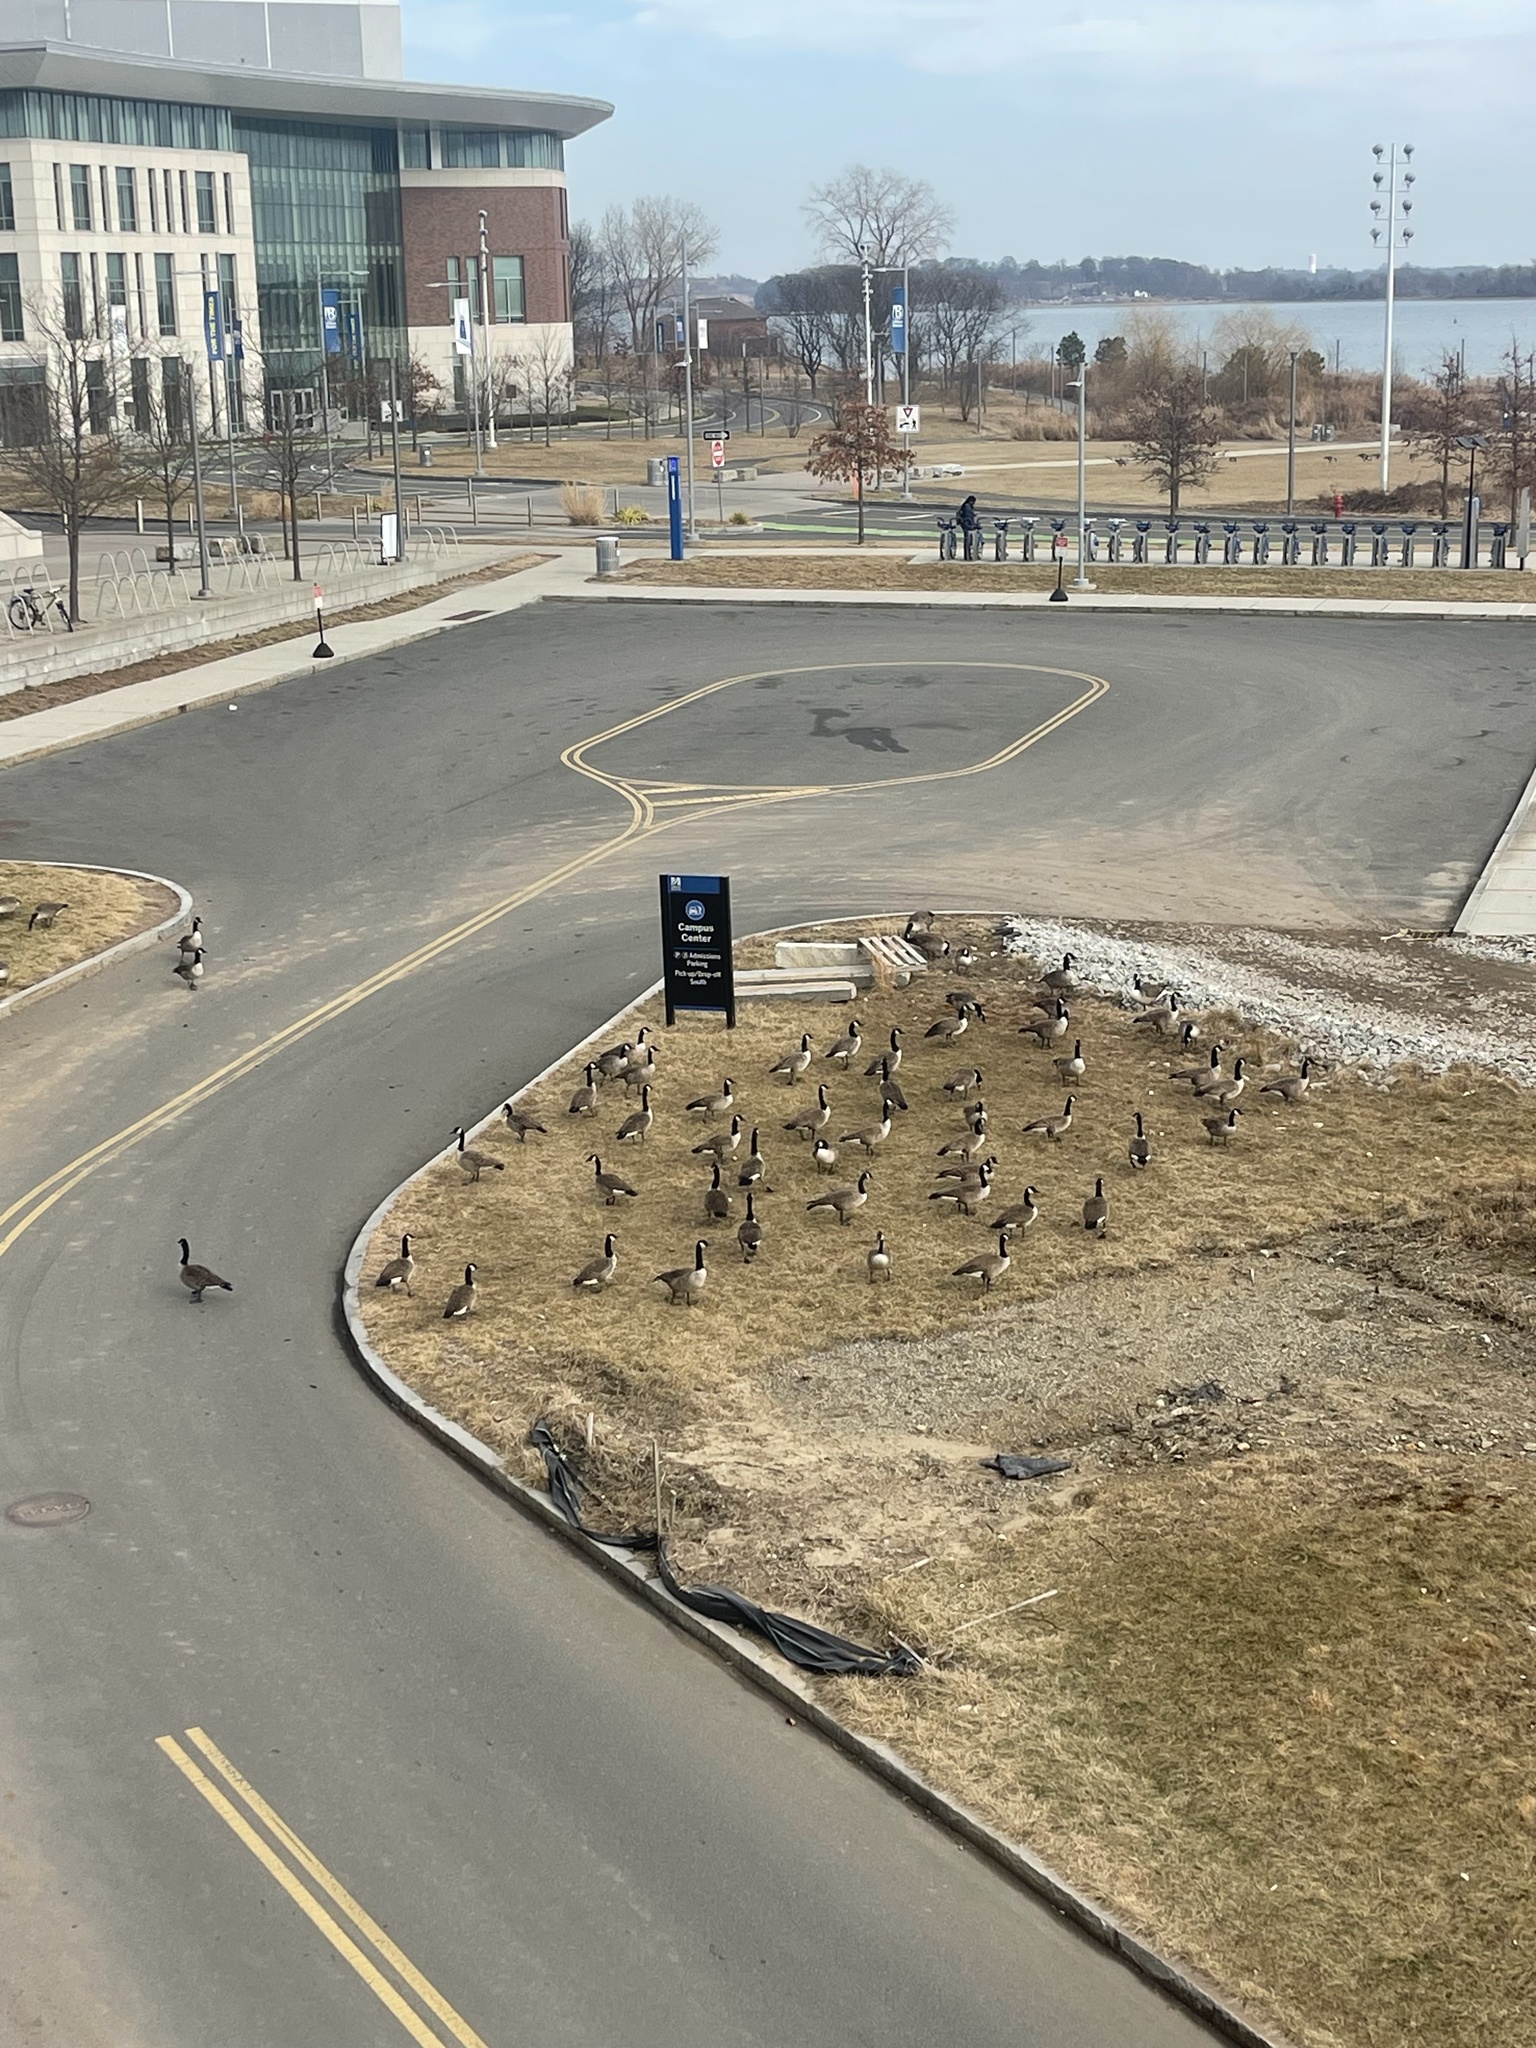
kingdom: Animalia
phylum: Chordata
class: Aves
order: Anseriformes
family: Anatidae
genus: Branta
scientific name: Branta canadensis
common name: Canada goose
